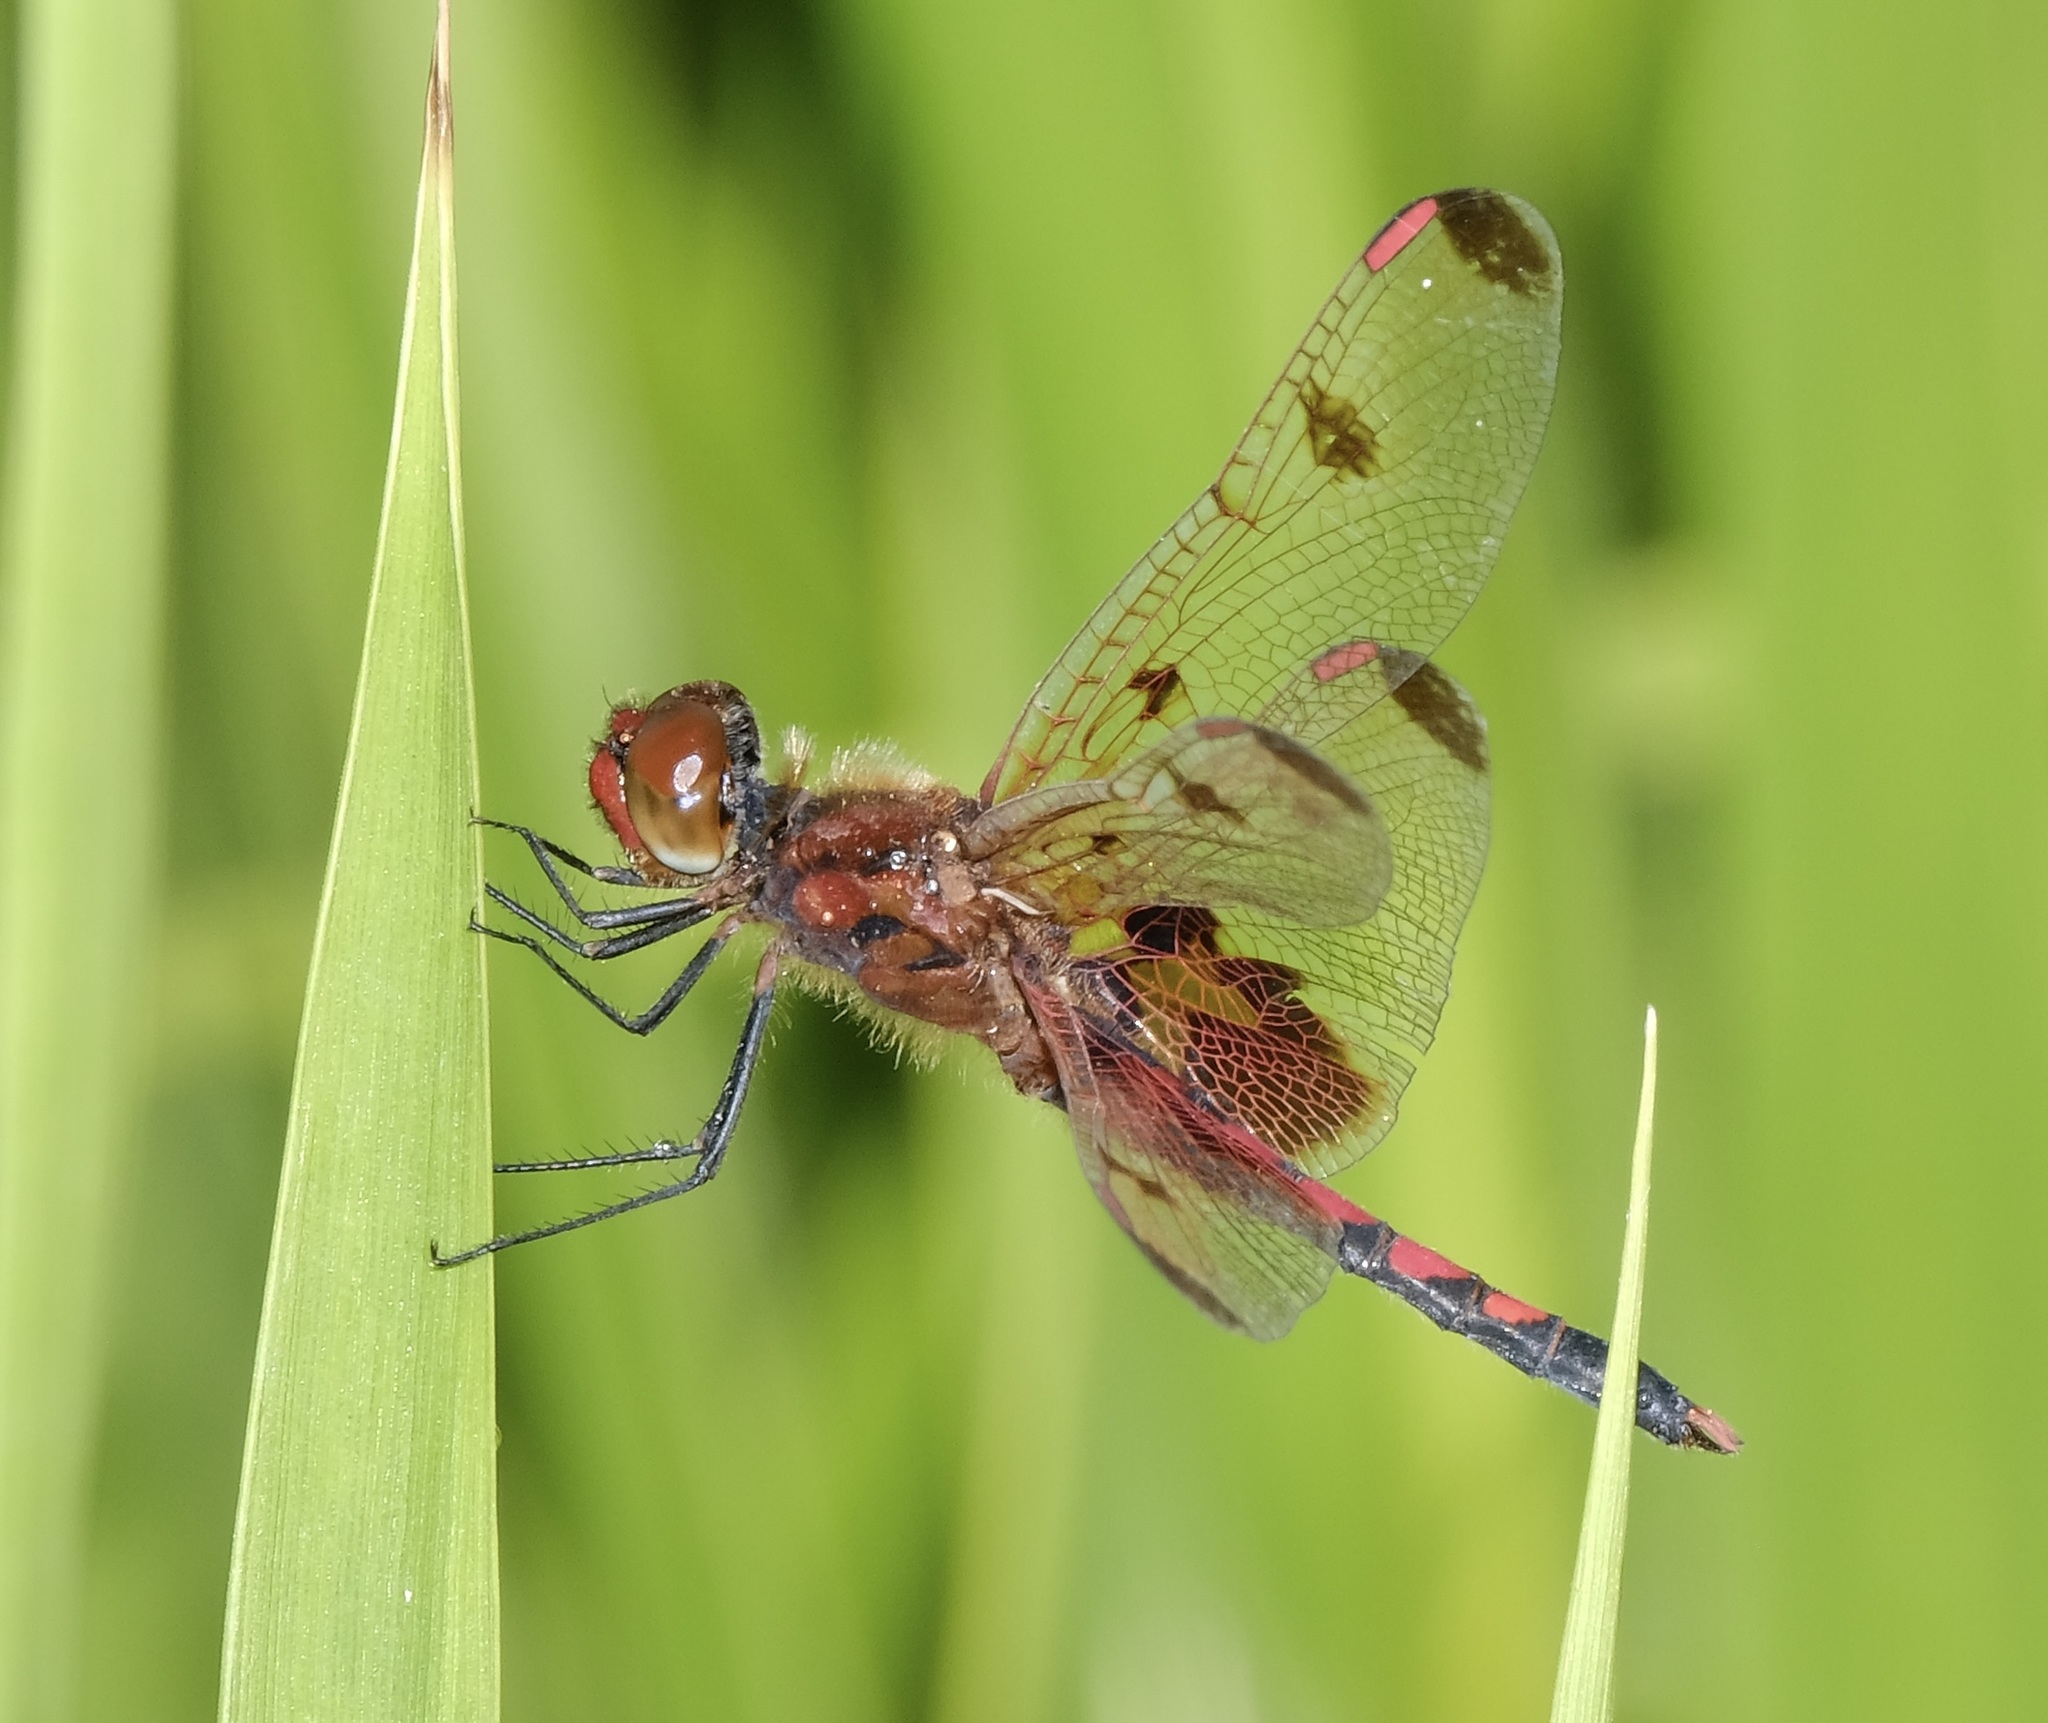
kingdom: Animalia
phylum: Arthropoda
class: Insecta
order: Odonata
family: Libellulidae
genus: Celithemis
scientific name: Celithemis elisa
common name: Calico pennant
